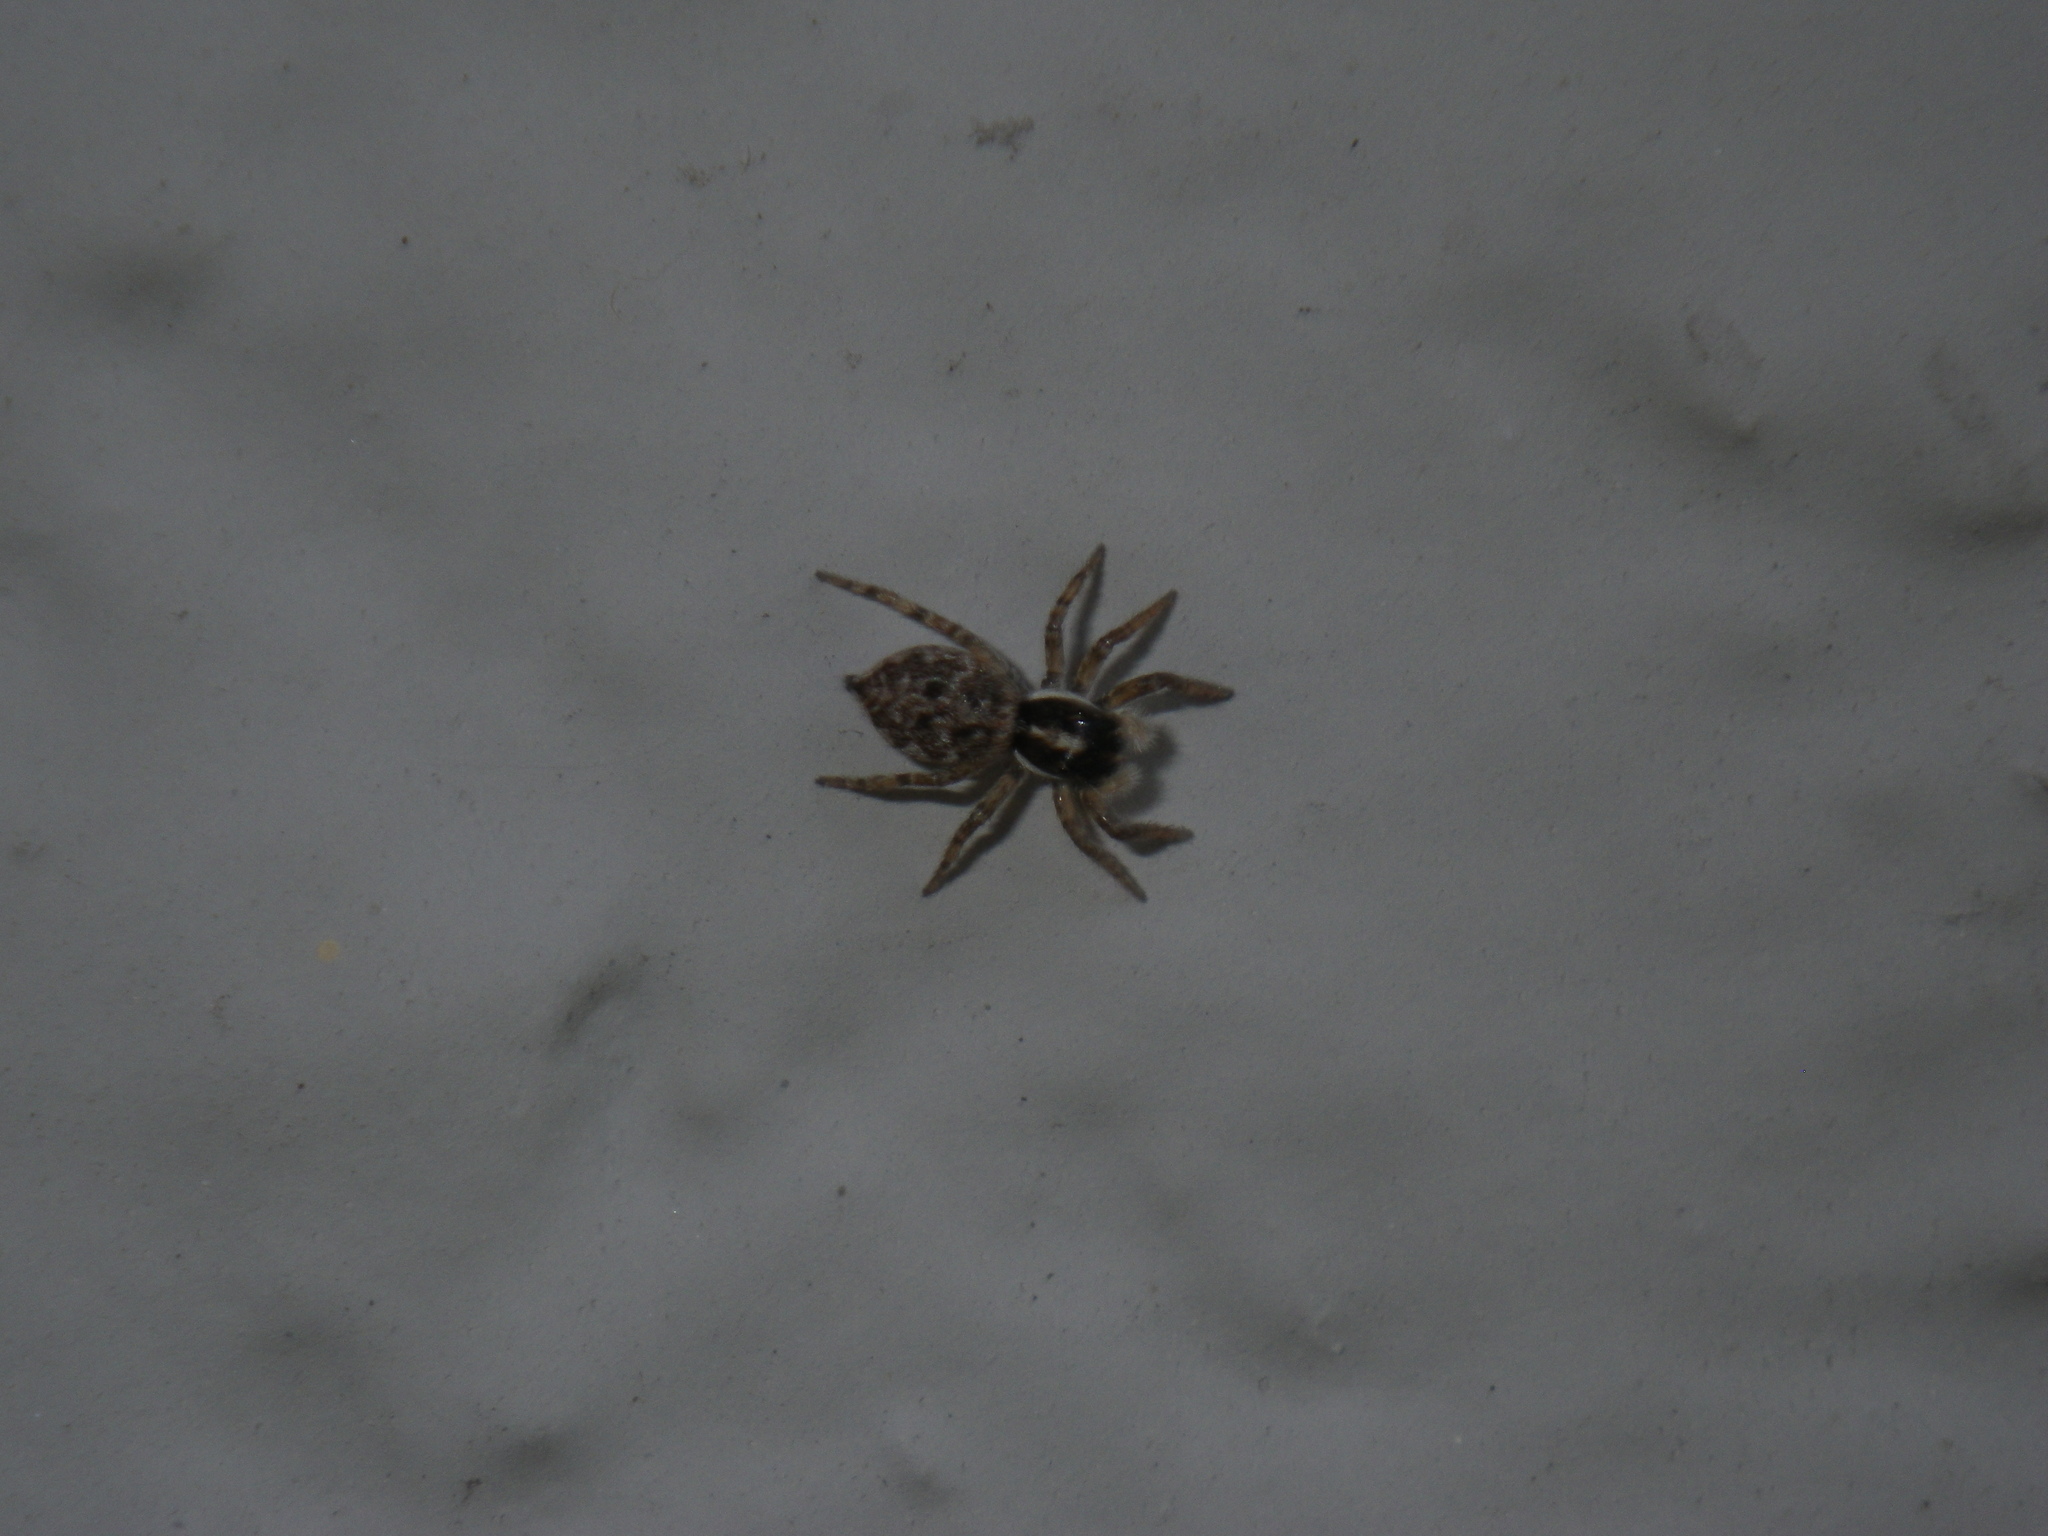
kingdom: Animalia
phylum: Arthropoda
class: Arachnida
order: Araneae
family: Salticidae
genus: Menemerus
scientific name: Menemerus semilimbatus
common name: Jumping spider
